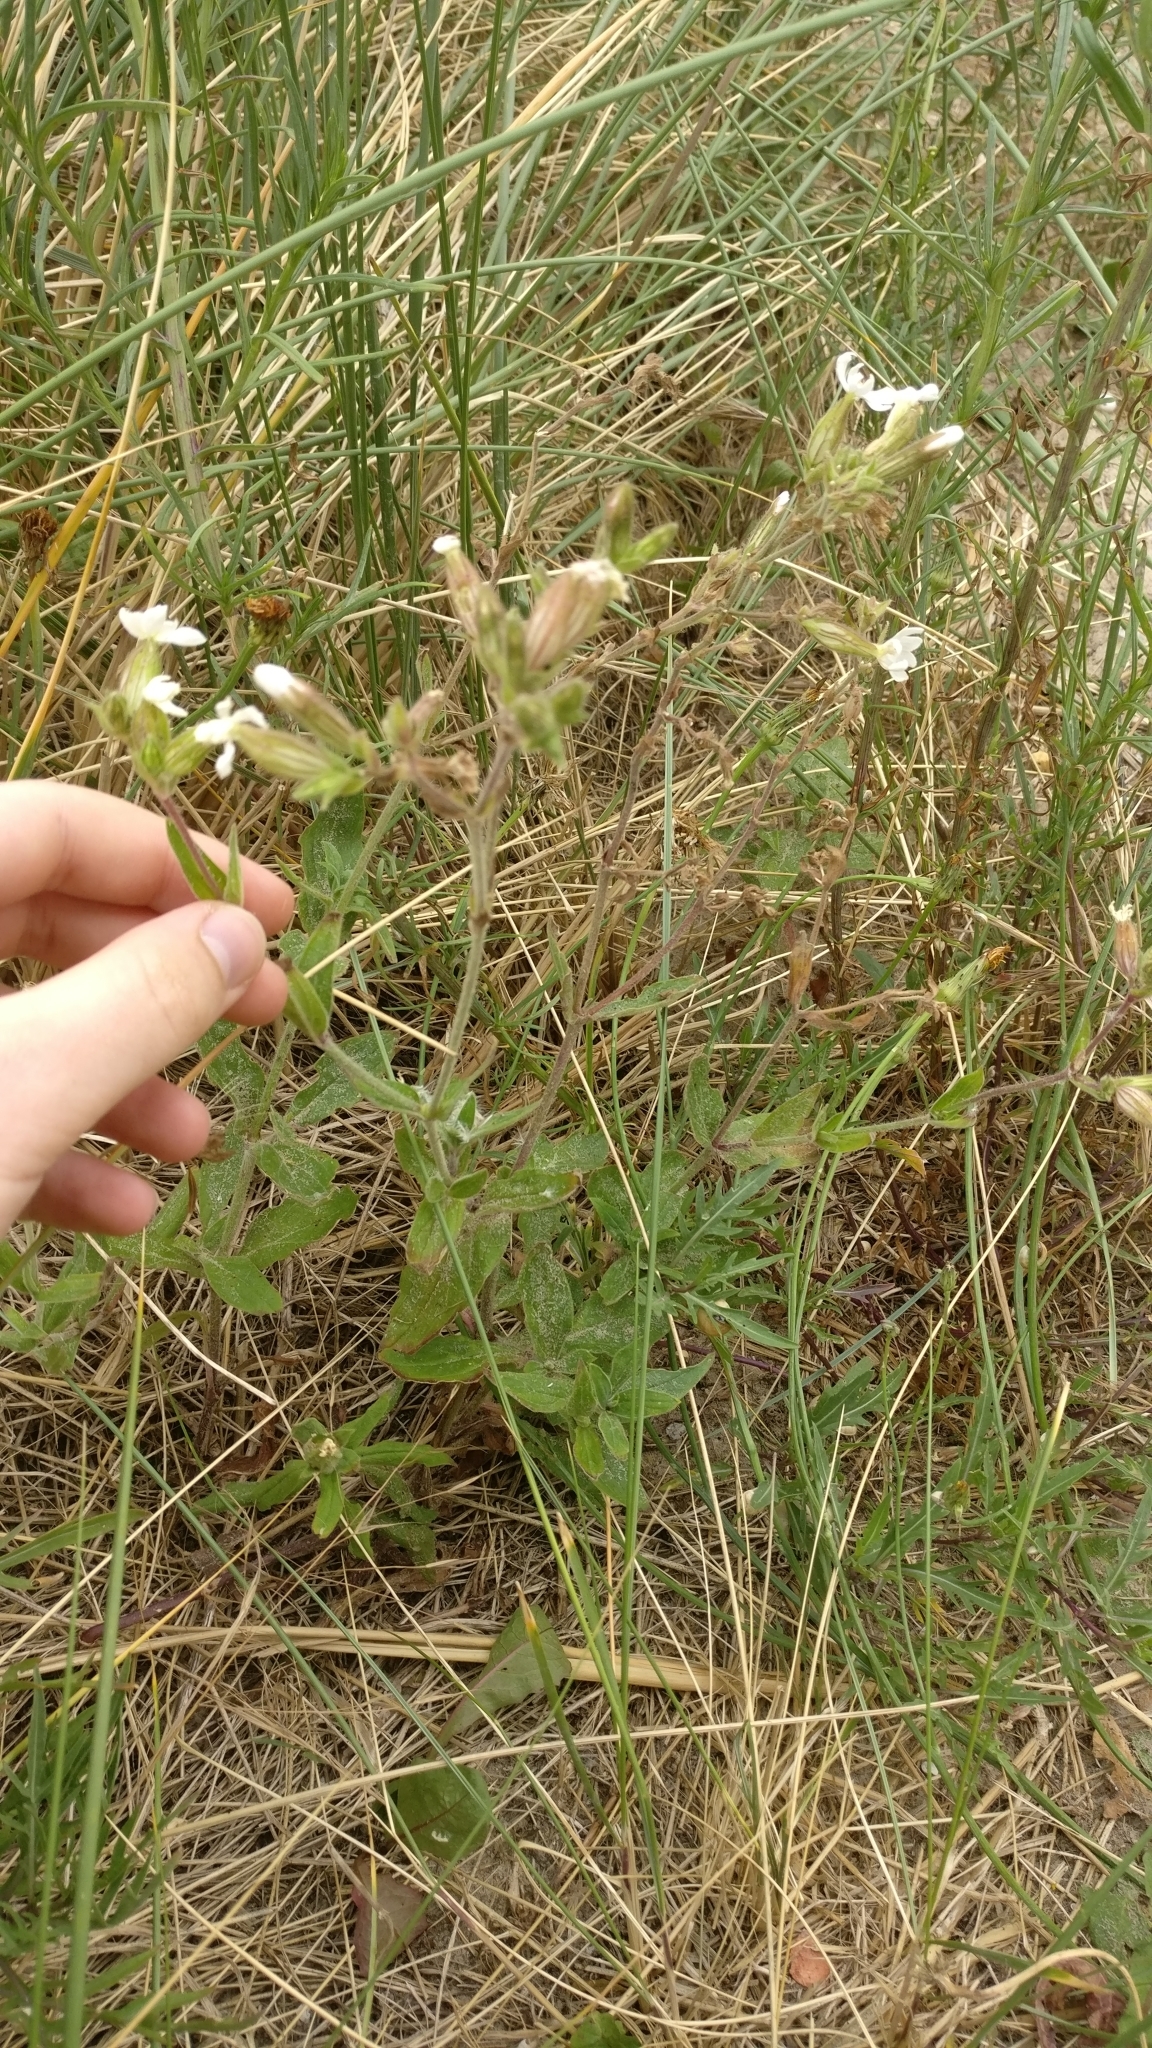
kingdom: Plantae
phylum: Tracheophyta
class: Magnoliopsida
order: Caryophyllales
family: Caryophyllaceae
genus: Silene
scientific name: Silene latifolia
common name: White campion
